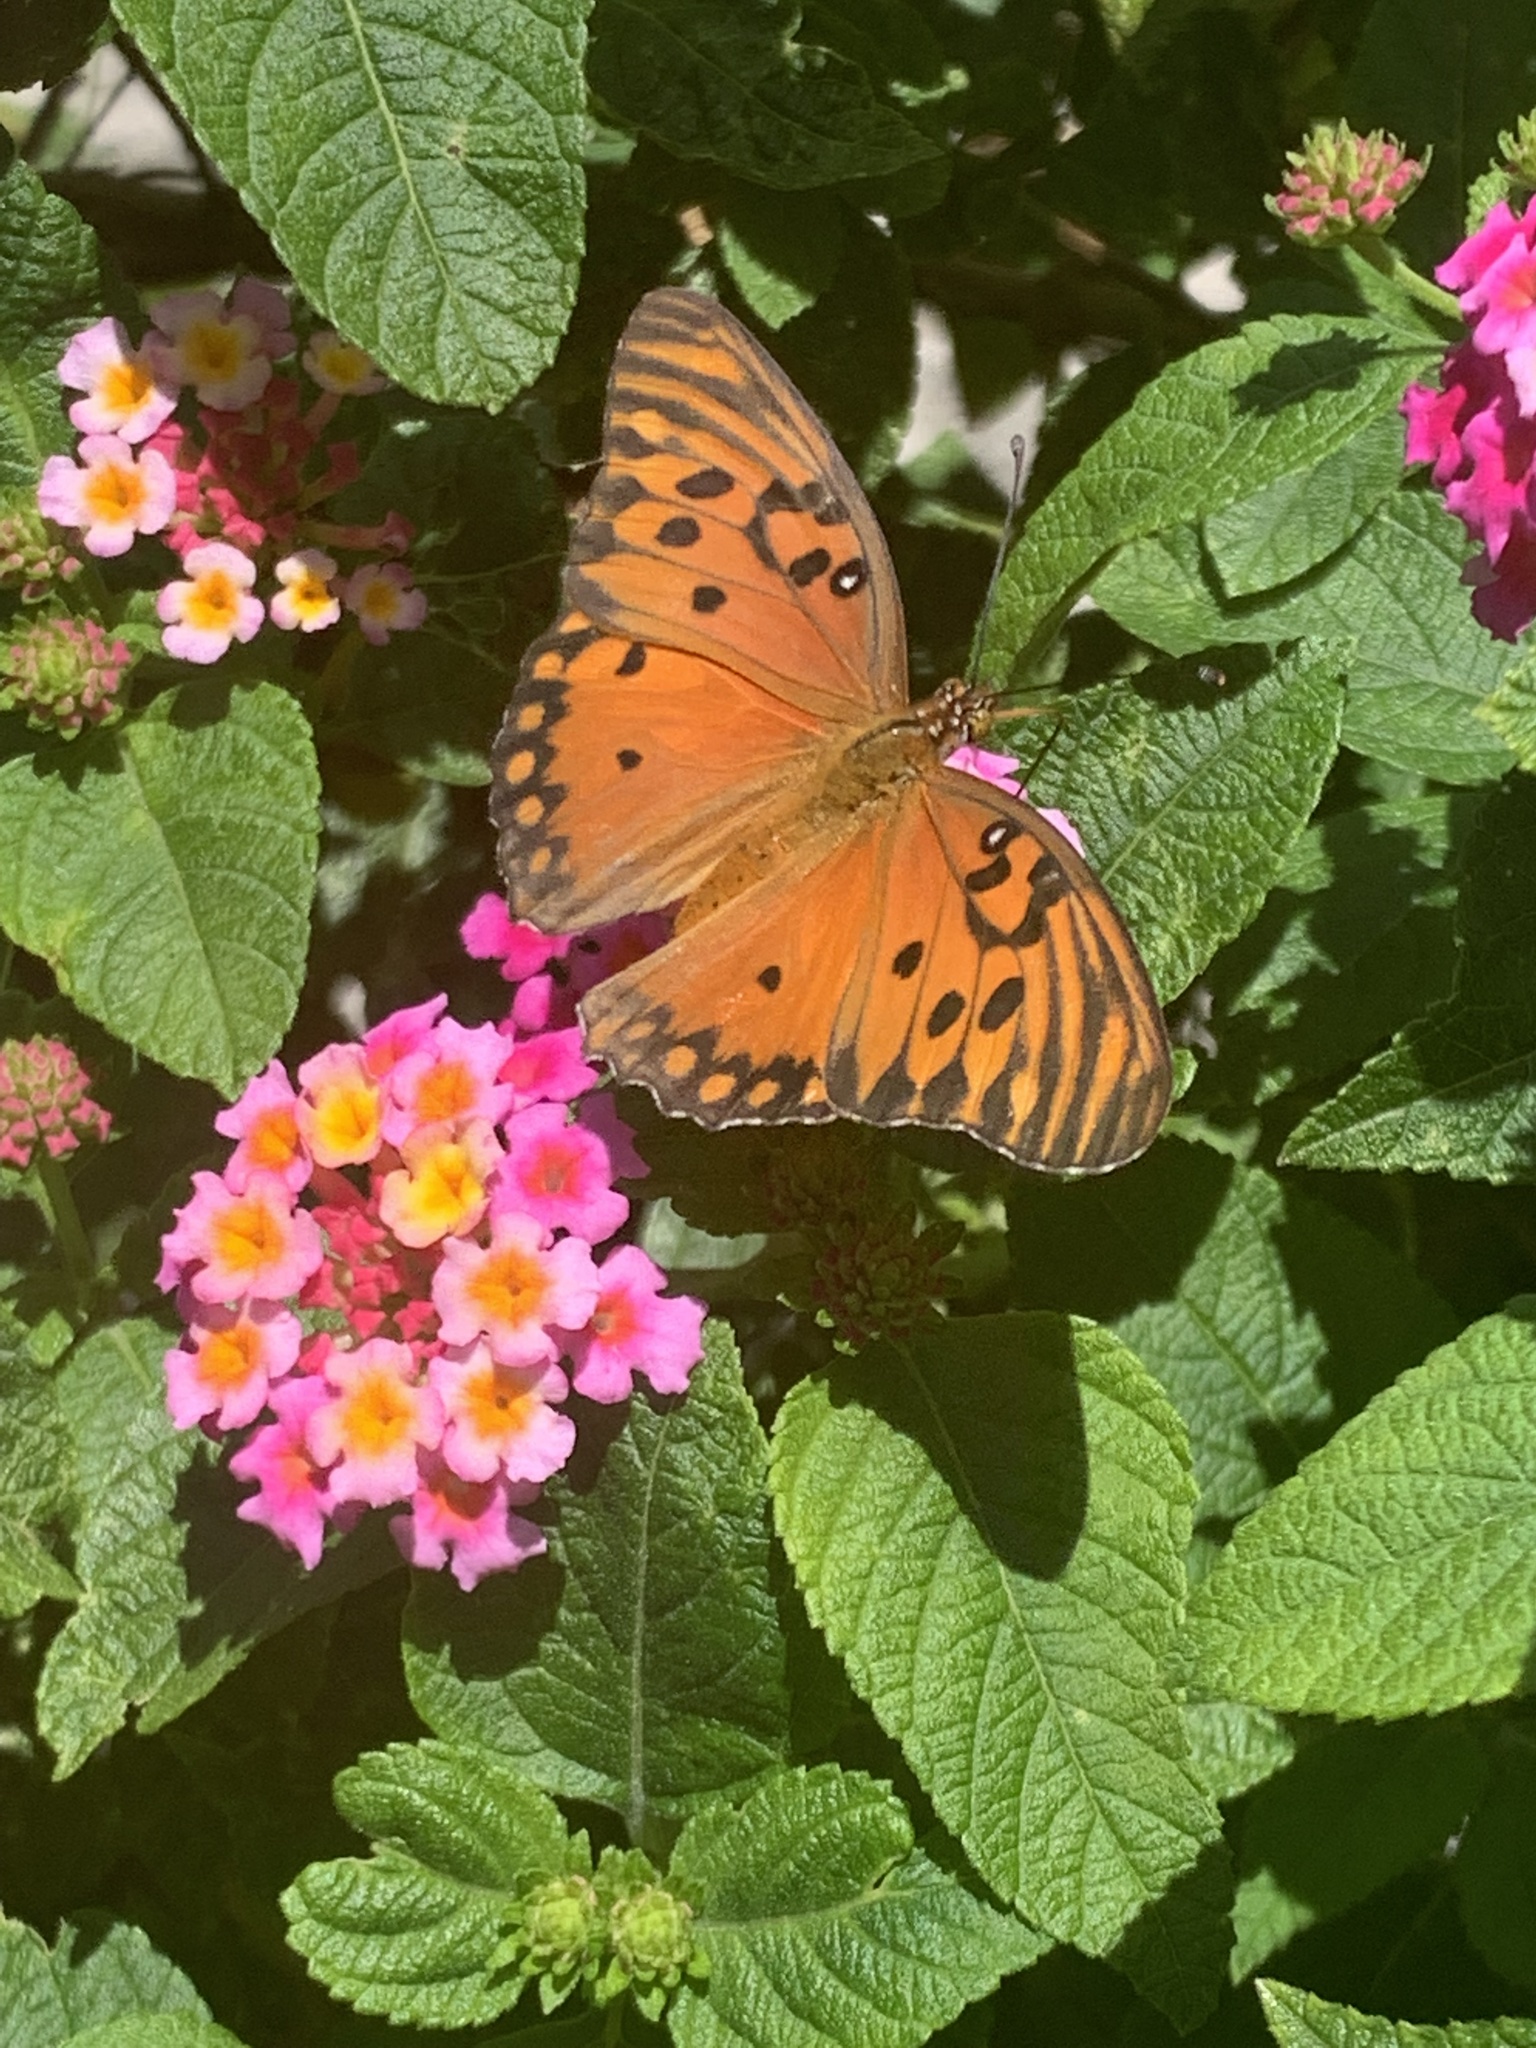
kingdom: Animalia
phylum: Arthropoda
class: Insecta
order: Lepidoptera
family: Nymphalidae
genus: Dione
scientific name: Dione vanillae
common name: Gulf fritillary
